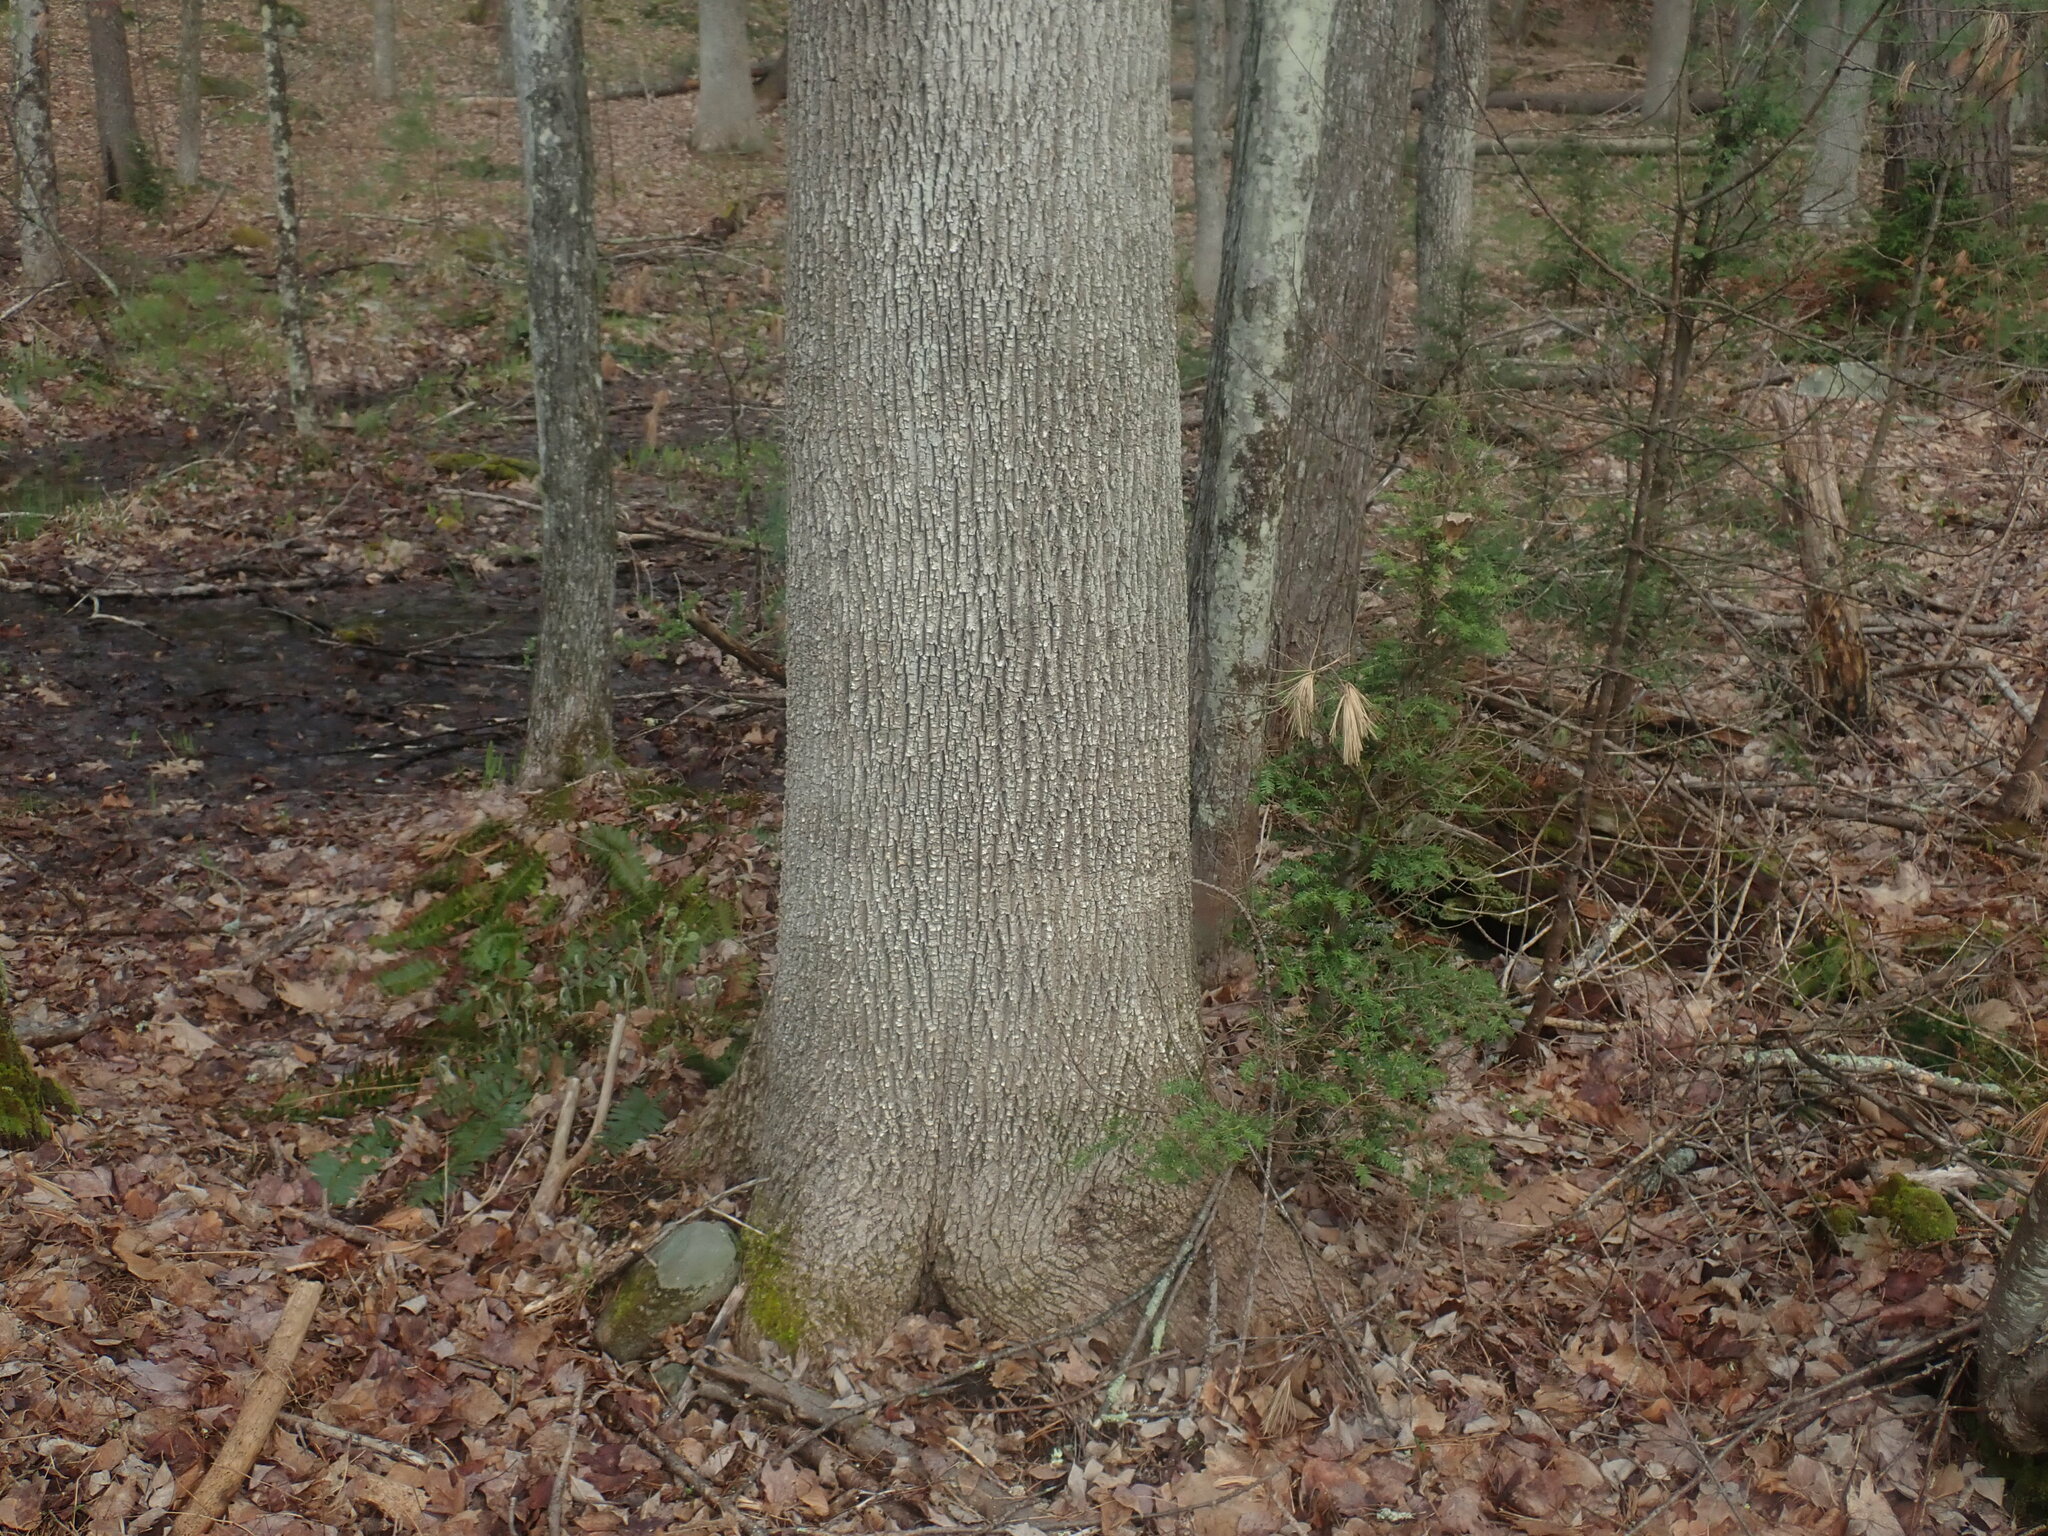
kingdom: Plantae
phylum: Tracheophyta
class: Magnoliopsida
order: Lamiales
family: Oleaceae
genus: Fraxinus
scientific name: Fraxinus americana
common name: White ash
